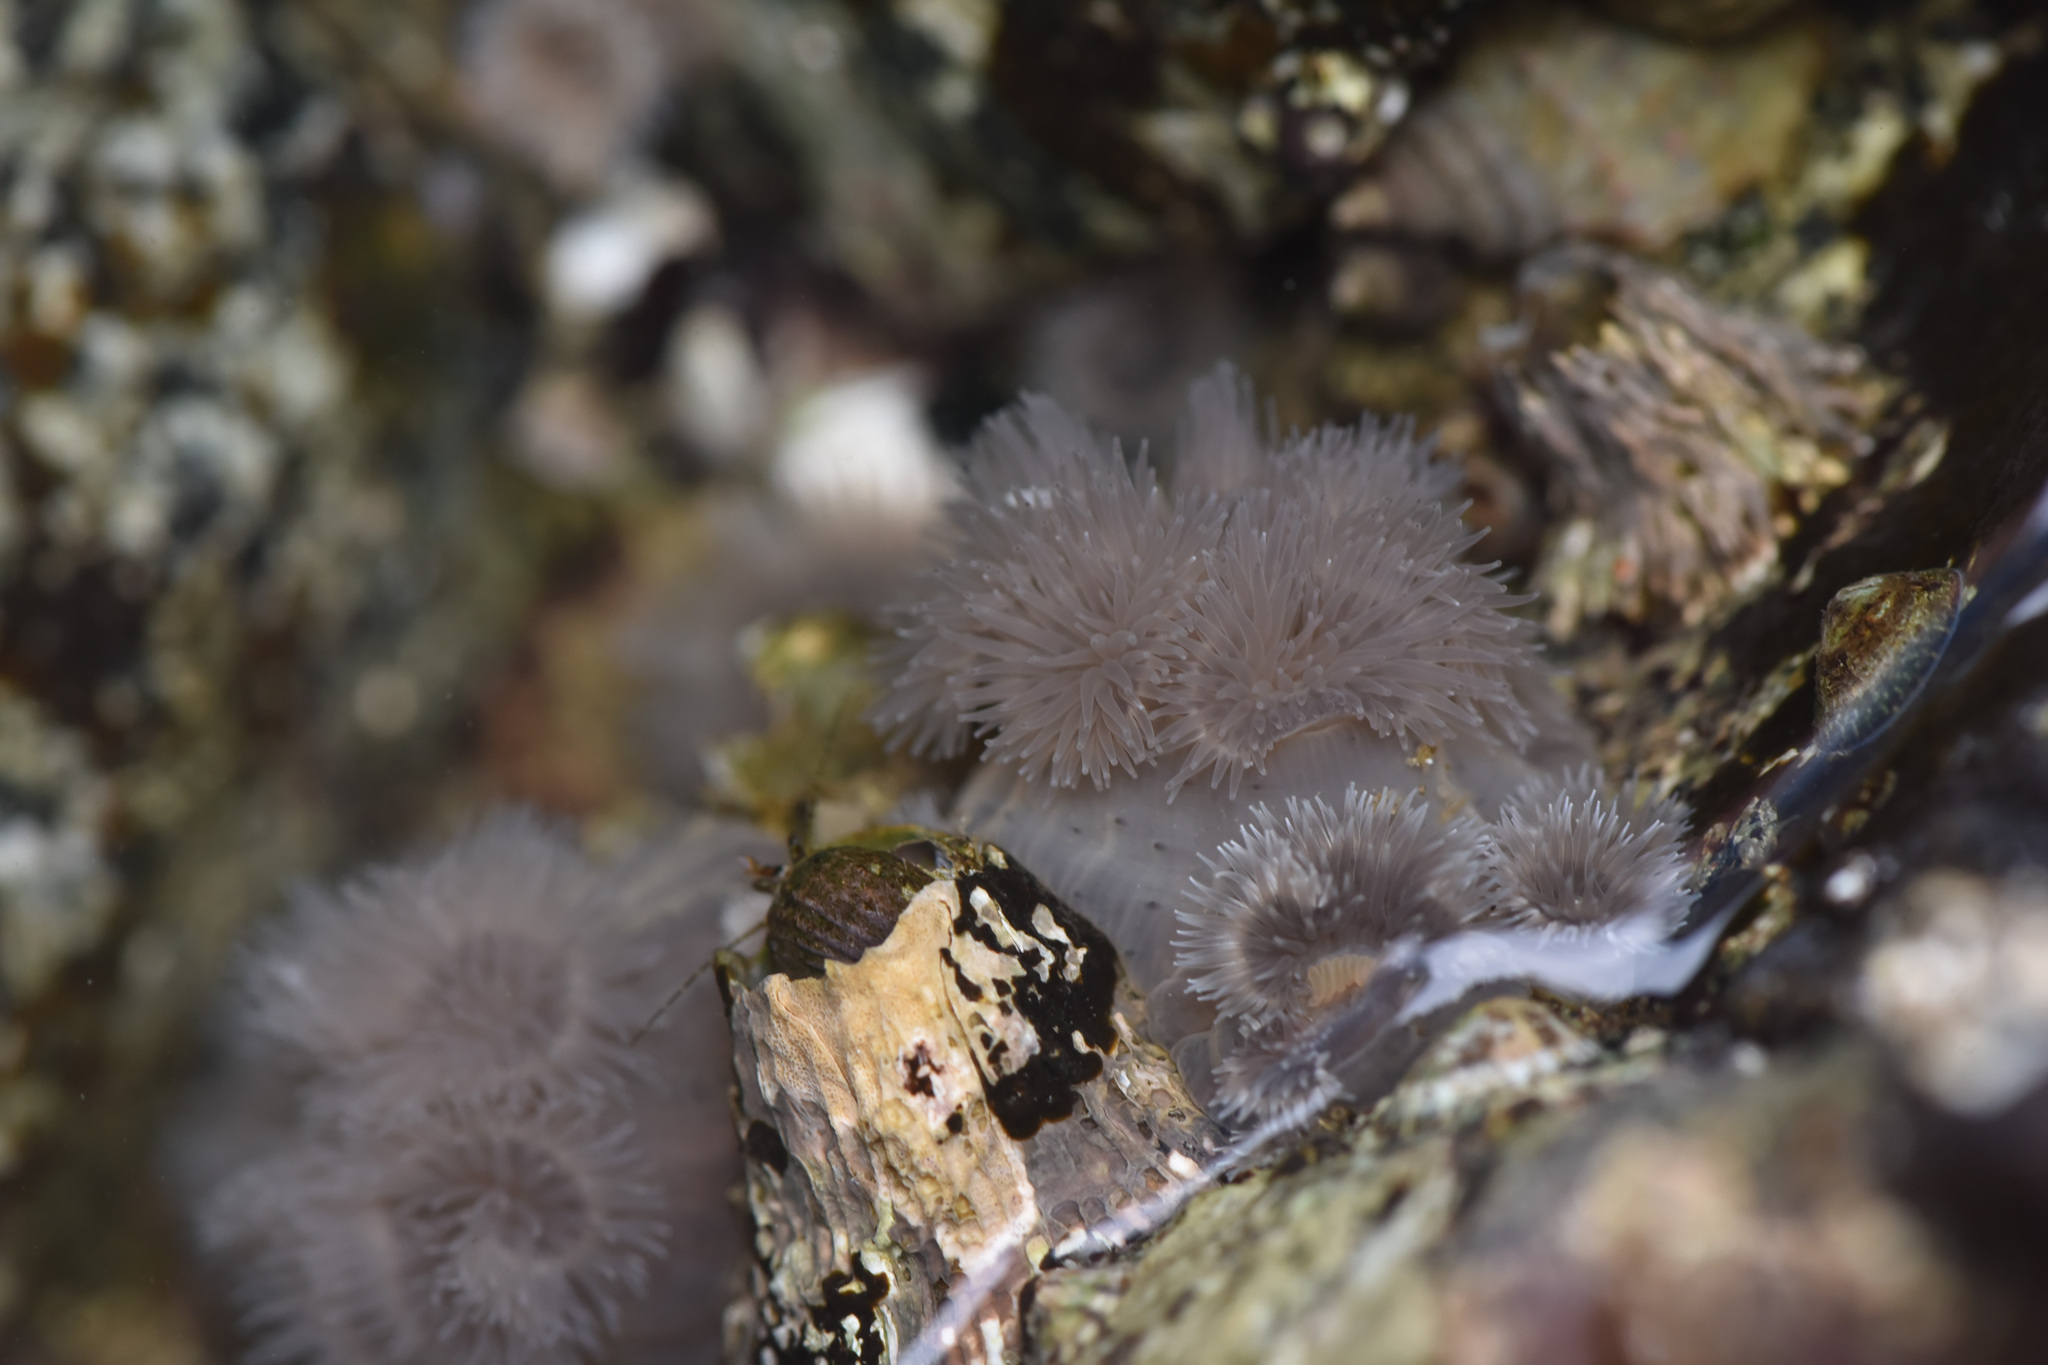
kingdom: Animalia
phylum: Cnidaria
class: Anthozoa
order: Actiniaria
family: Metridiidae
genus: Metridium
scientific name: Metridium senile
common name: Clonal plumose anemone
